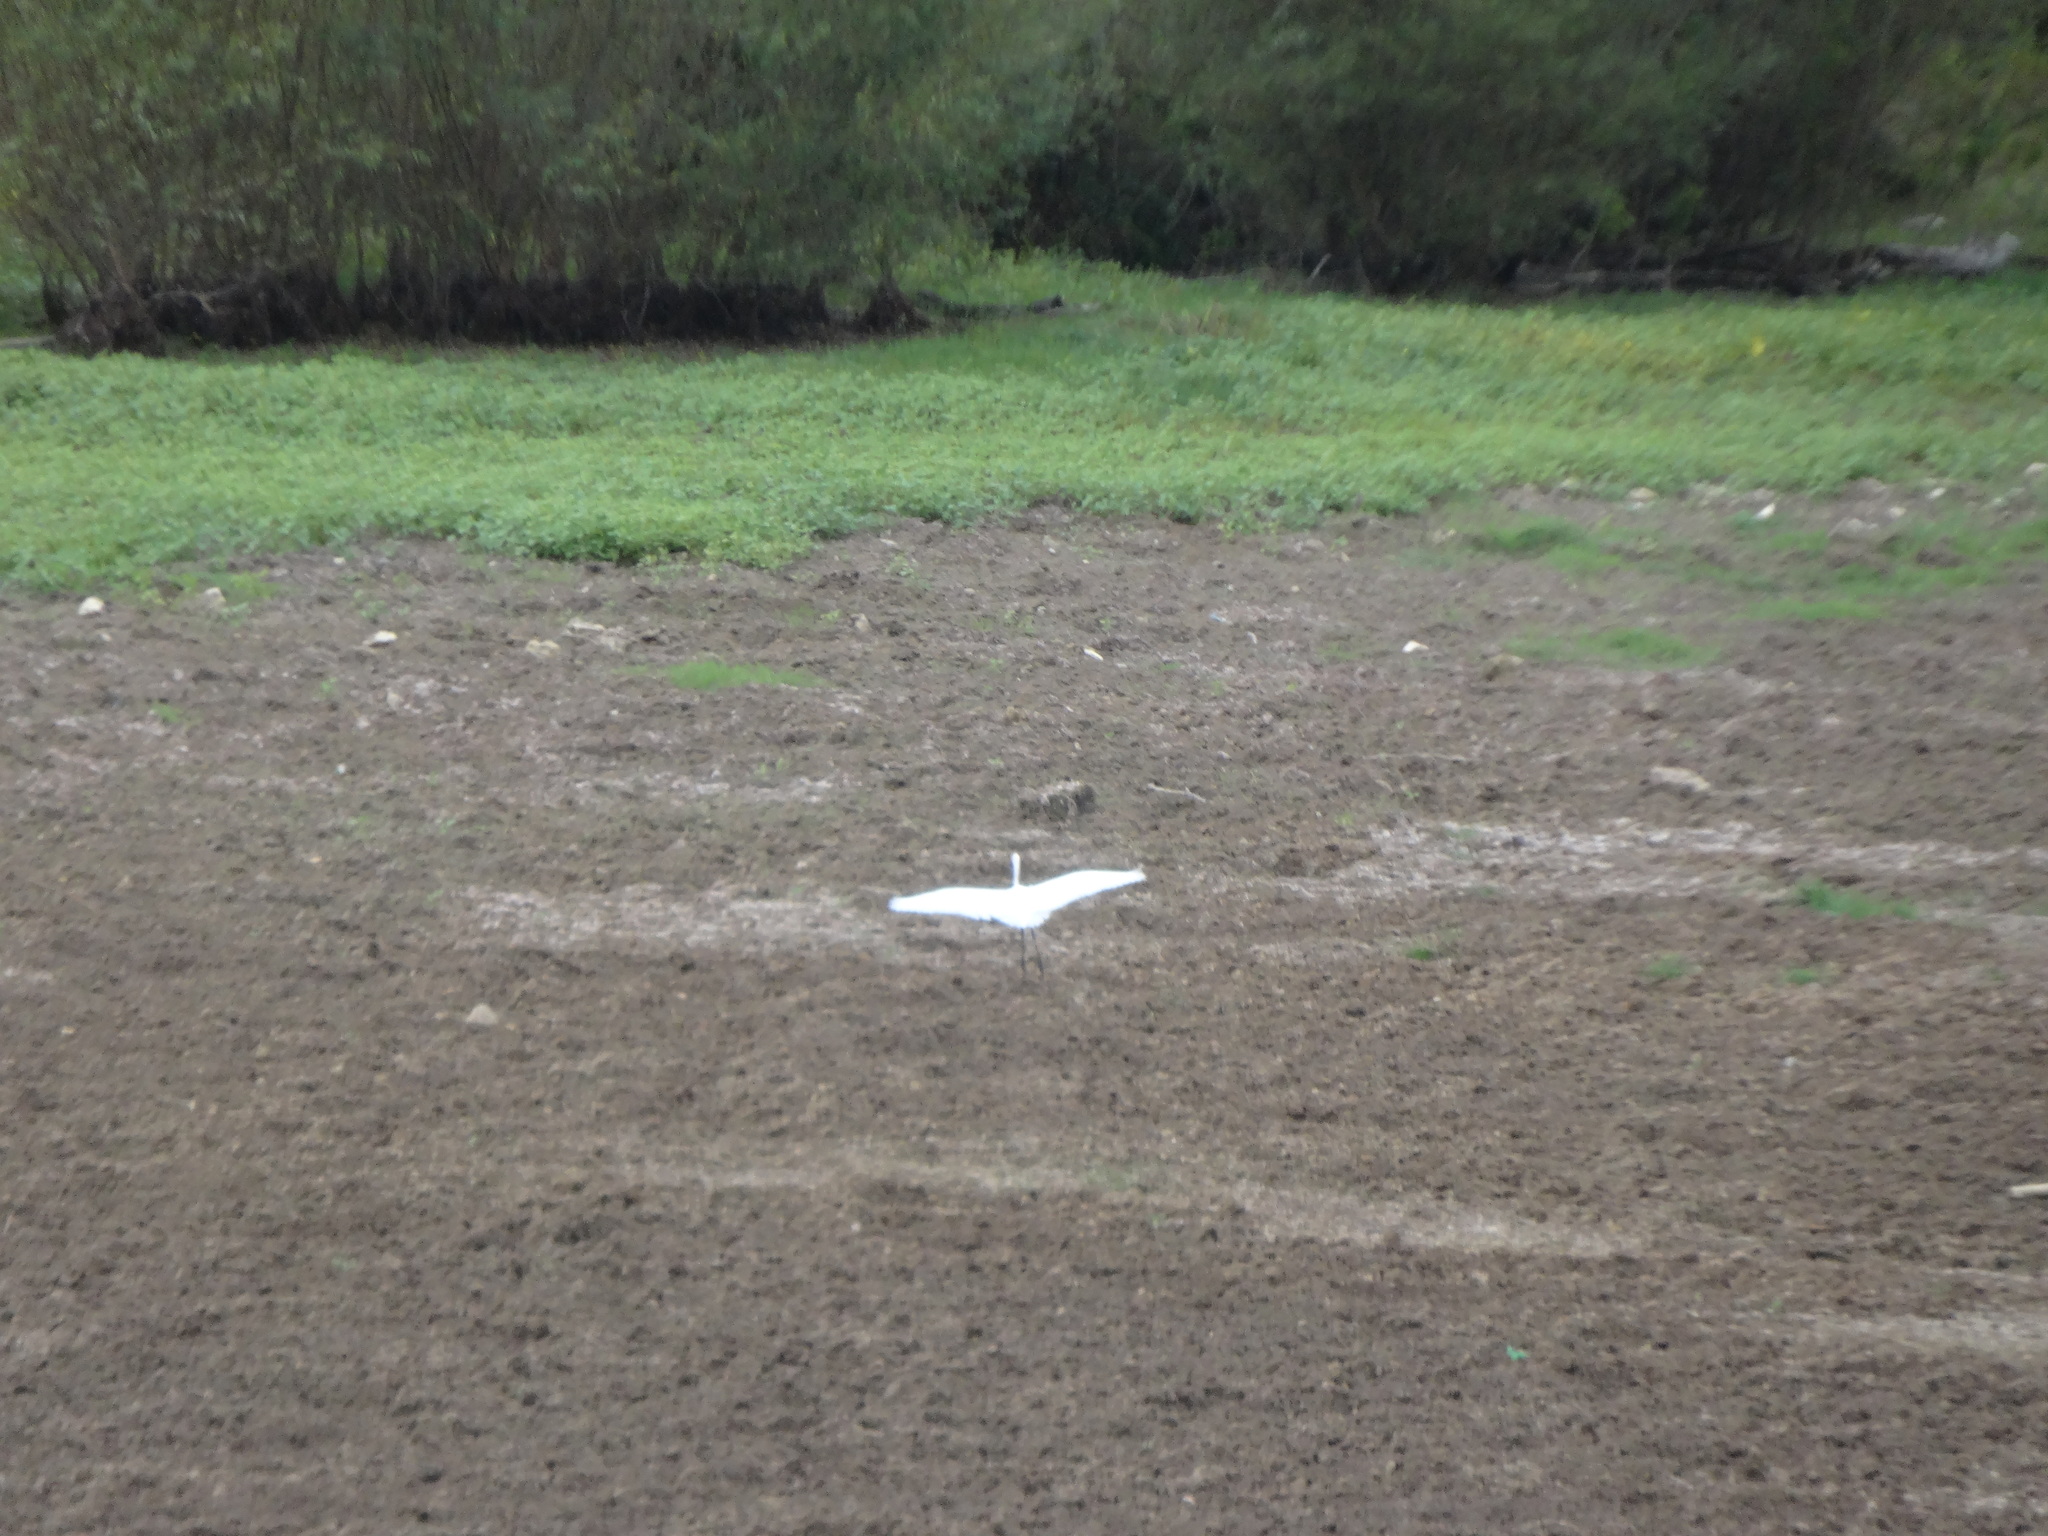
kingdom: Animalia
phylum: Chordata
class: Aves
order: Pelecaniformes
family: Ardeidae
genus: Ardea
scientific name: Ardea alba
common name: Great egret
